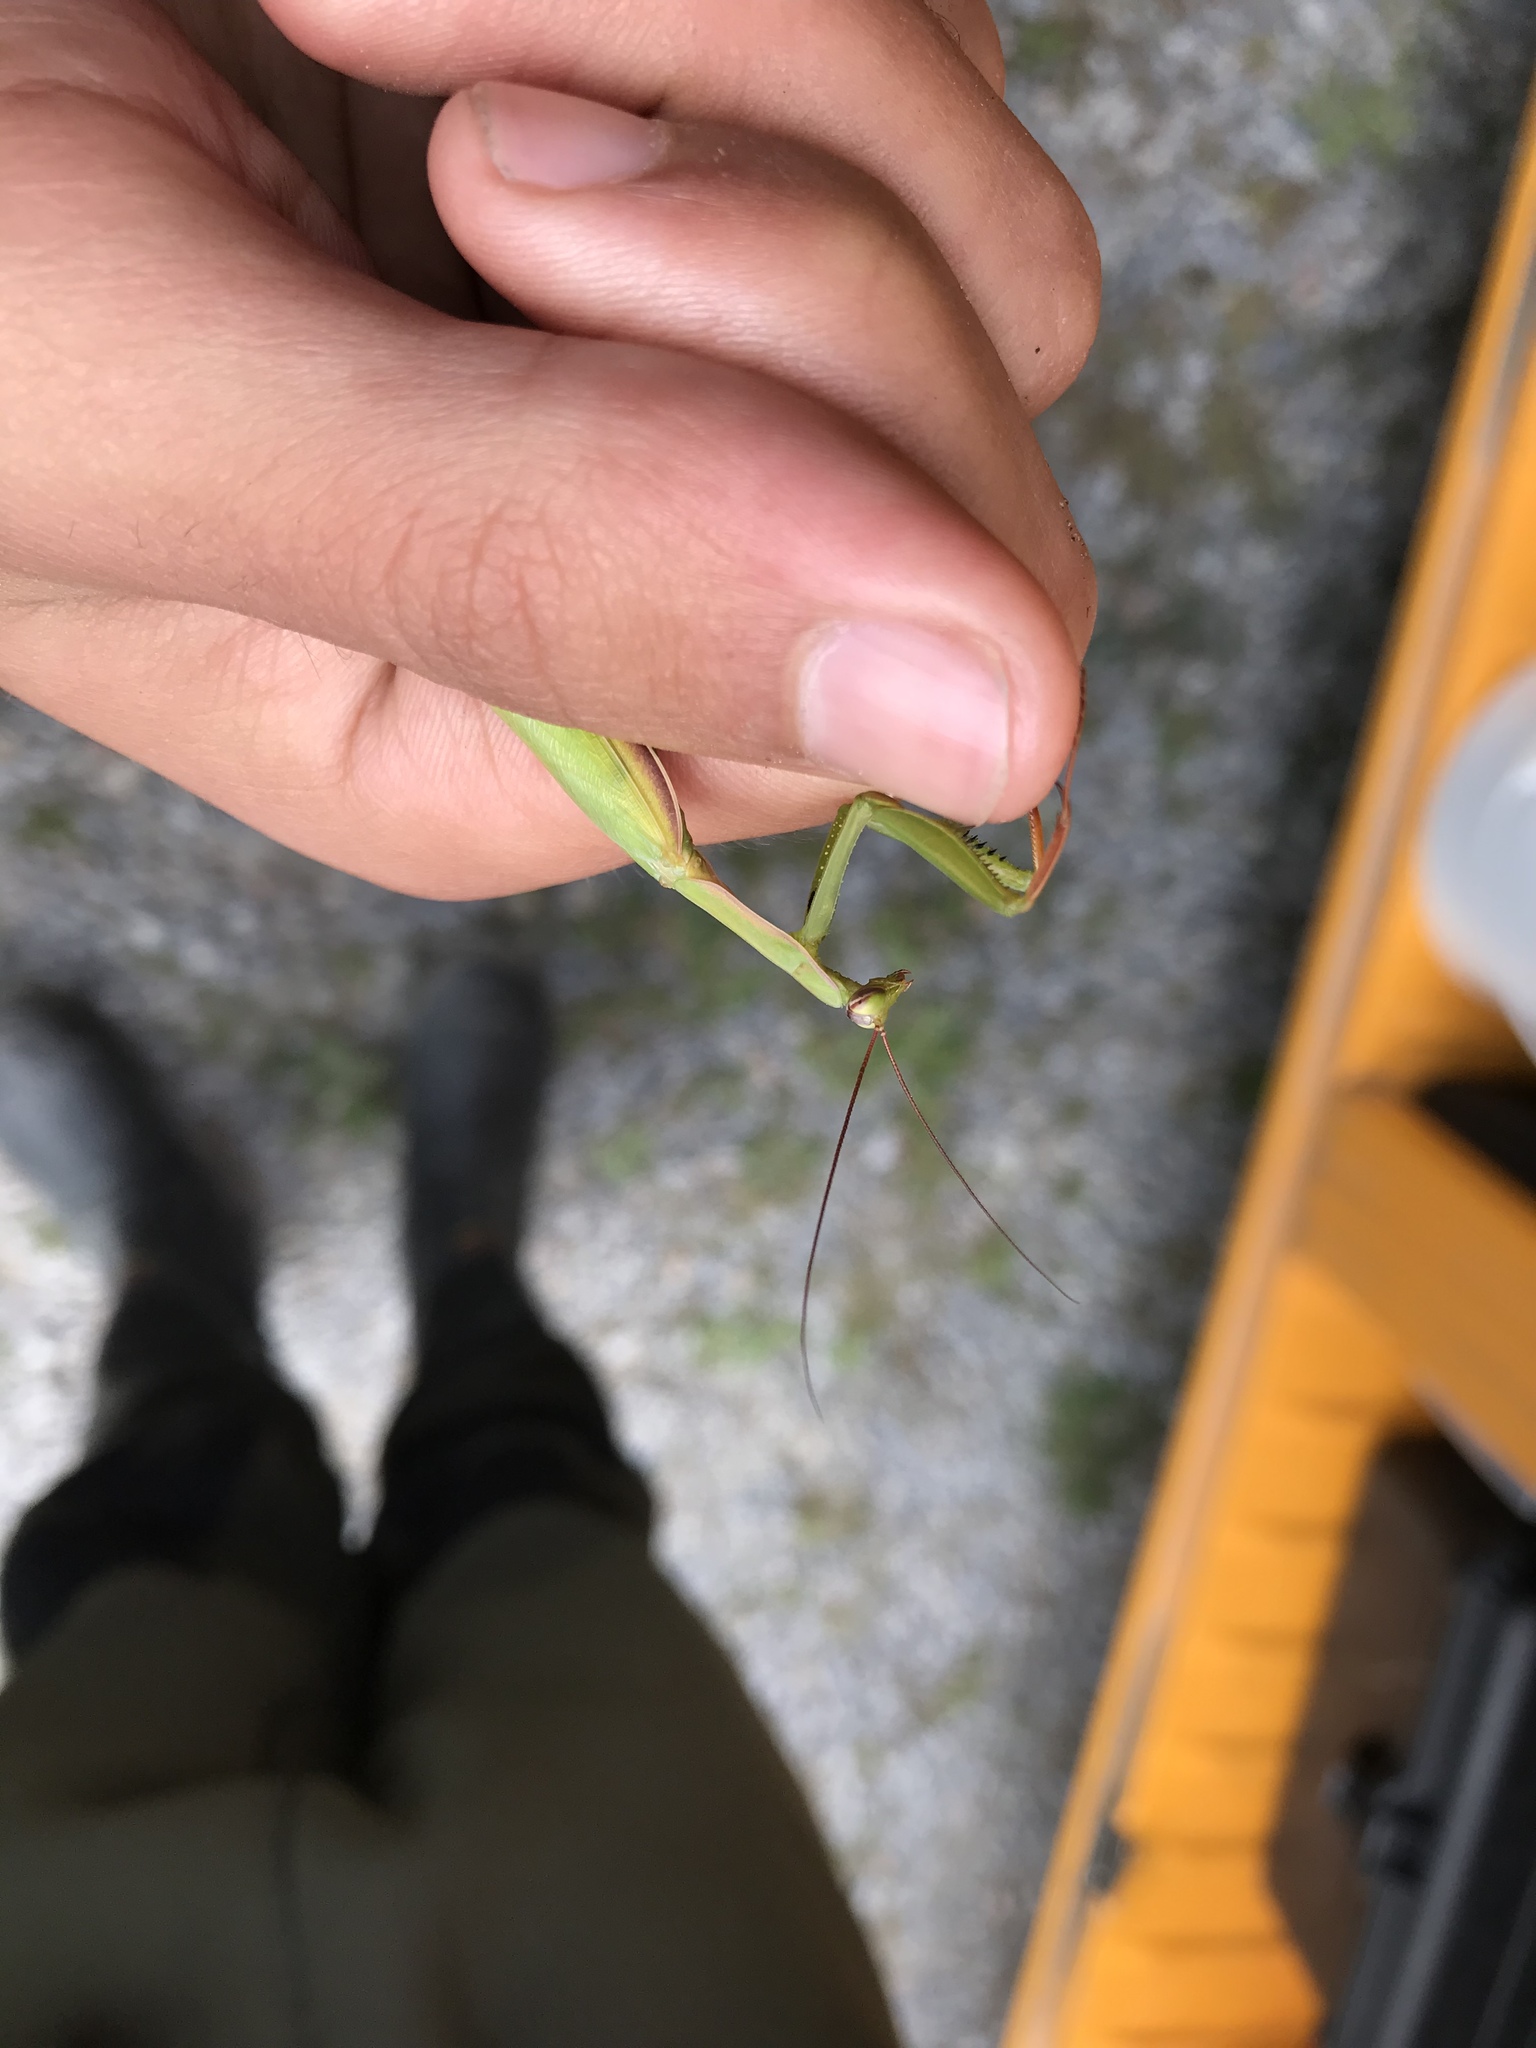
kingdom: Animalia
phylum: Arthropoda
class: Insecta
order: Mantodea
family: Mantidae
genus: Mantis
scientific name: Mantis religiosa
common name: Praying mantis
